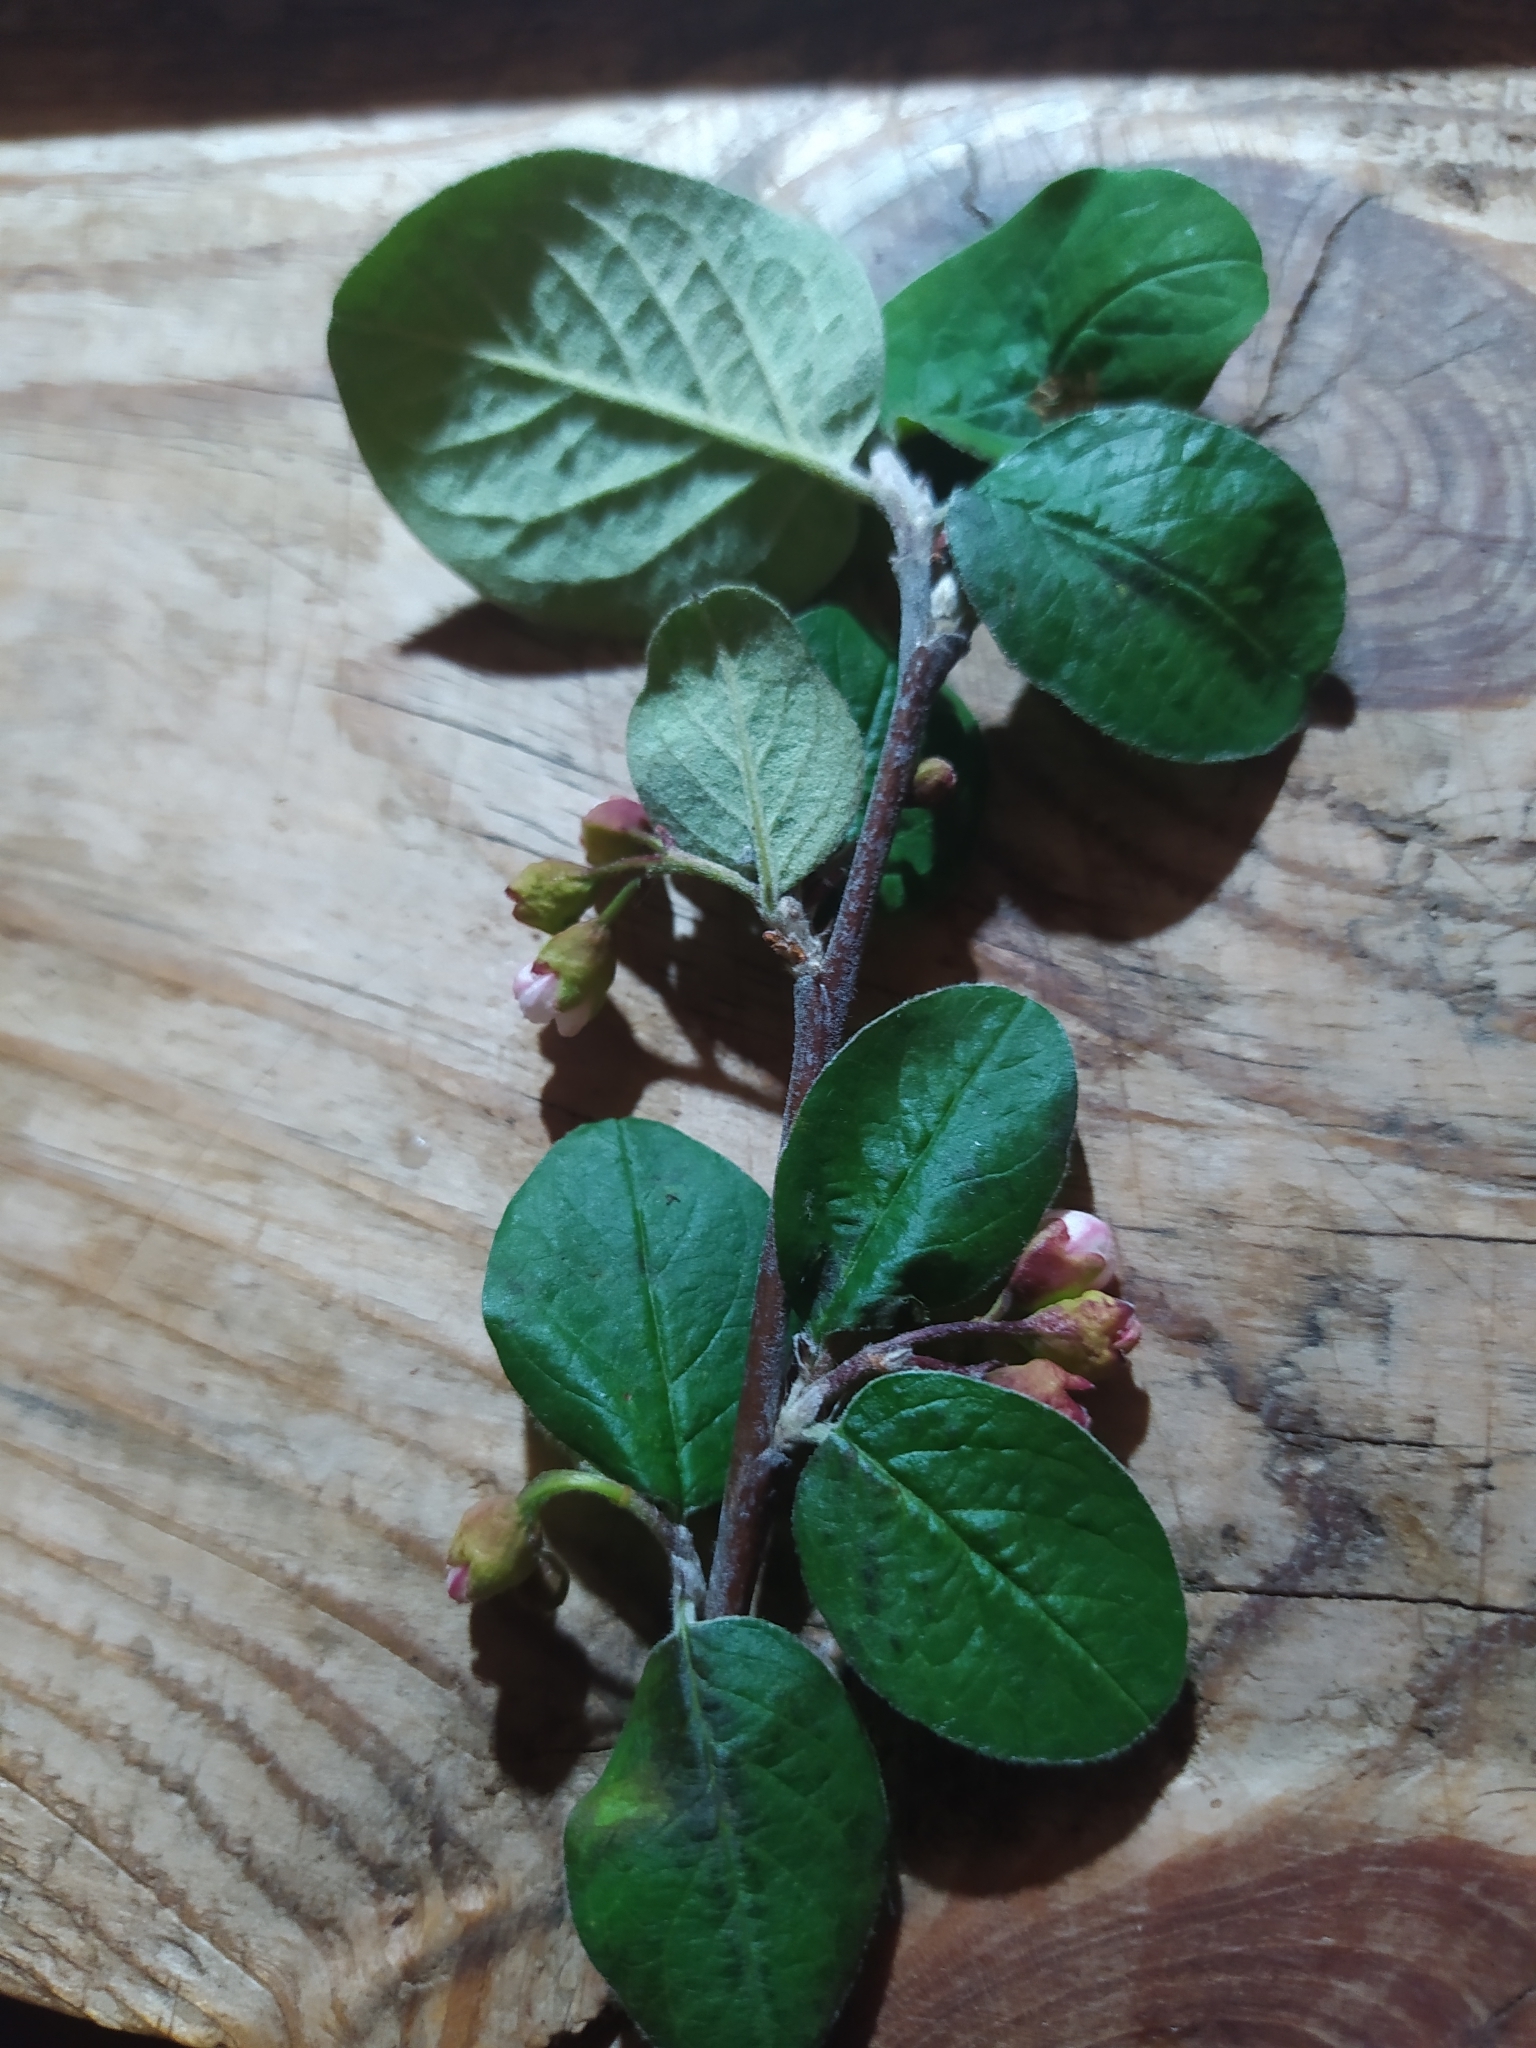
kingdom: Plantae
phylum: Tracheophyta
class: Magnoliopsida
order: Rosales
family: Rosaceae
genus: Cotoneaster
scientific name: Cotoneaster melanocarpus
